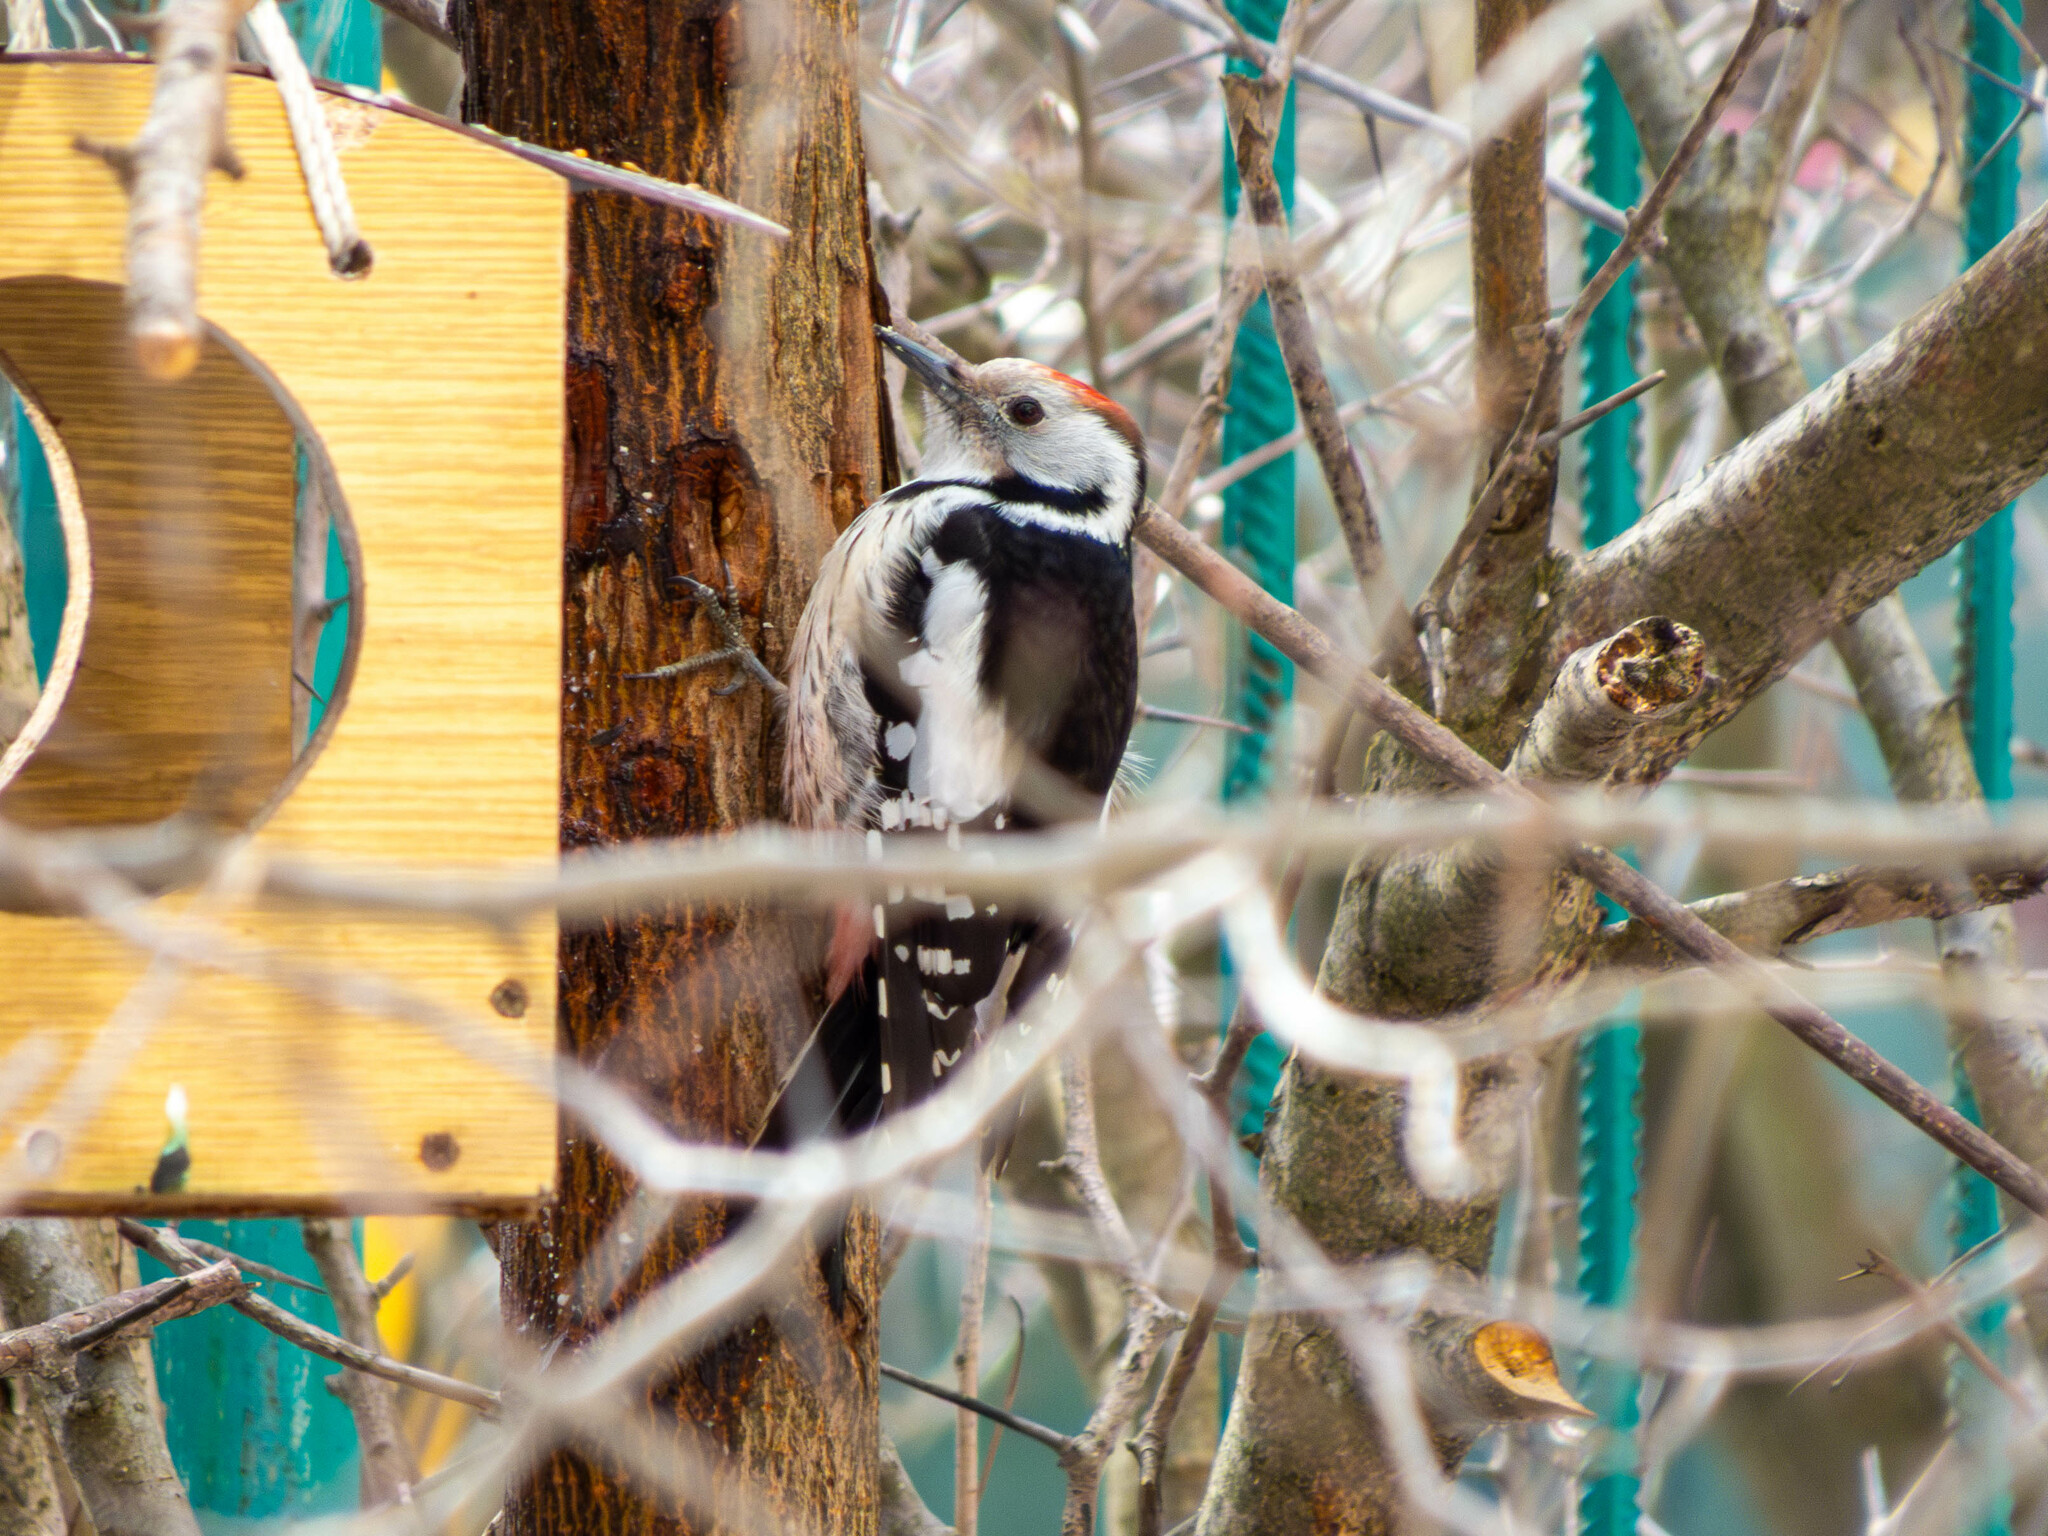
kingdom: Animalia
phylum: Chordata
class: Aves
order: Piciformes
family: Picidae
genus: Dendrocoptes
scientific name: Dendrocoptes medius
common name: Middle spotted woodpecker
